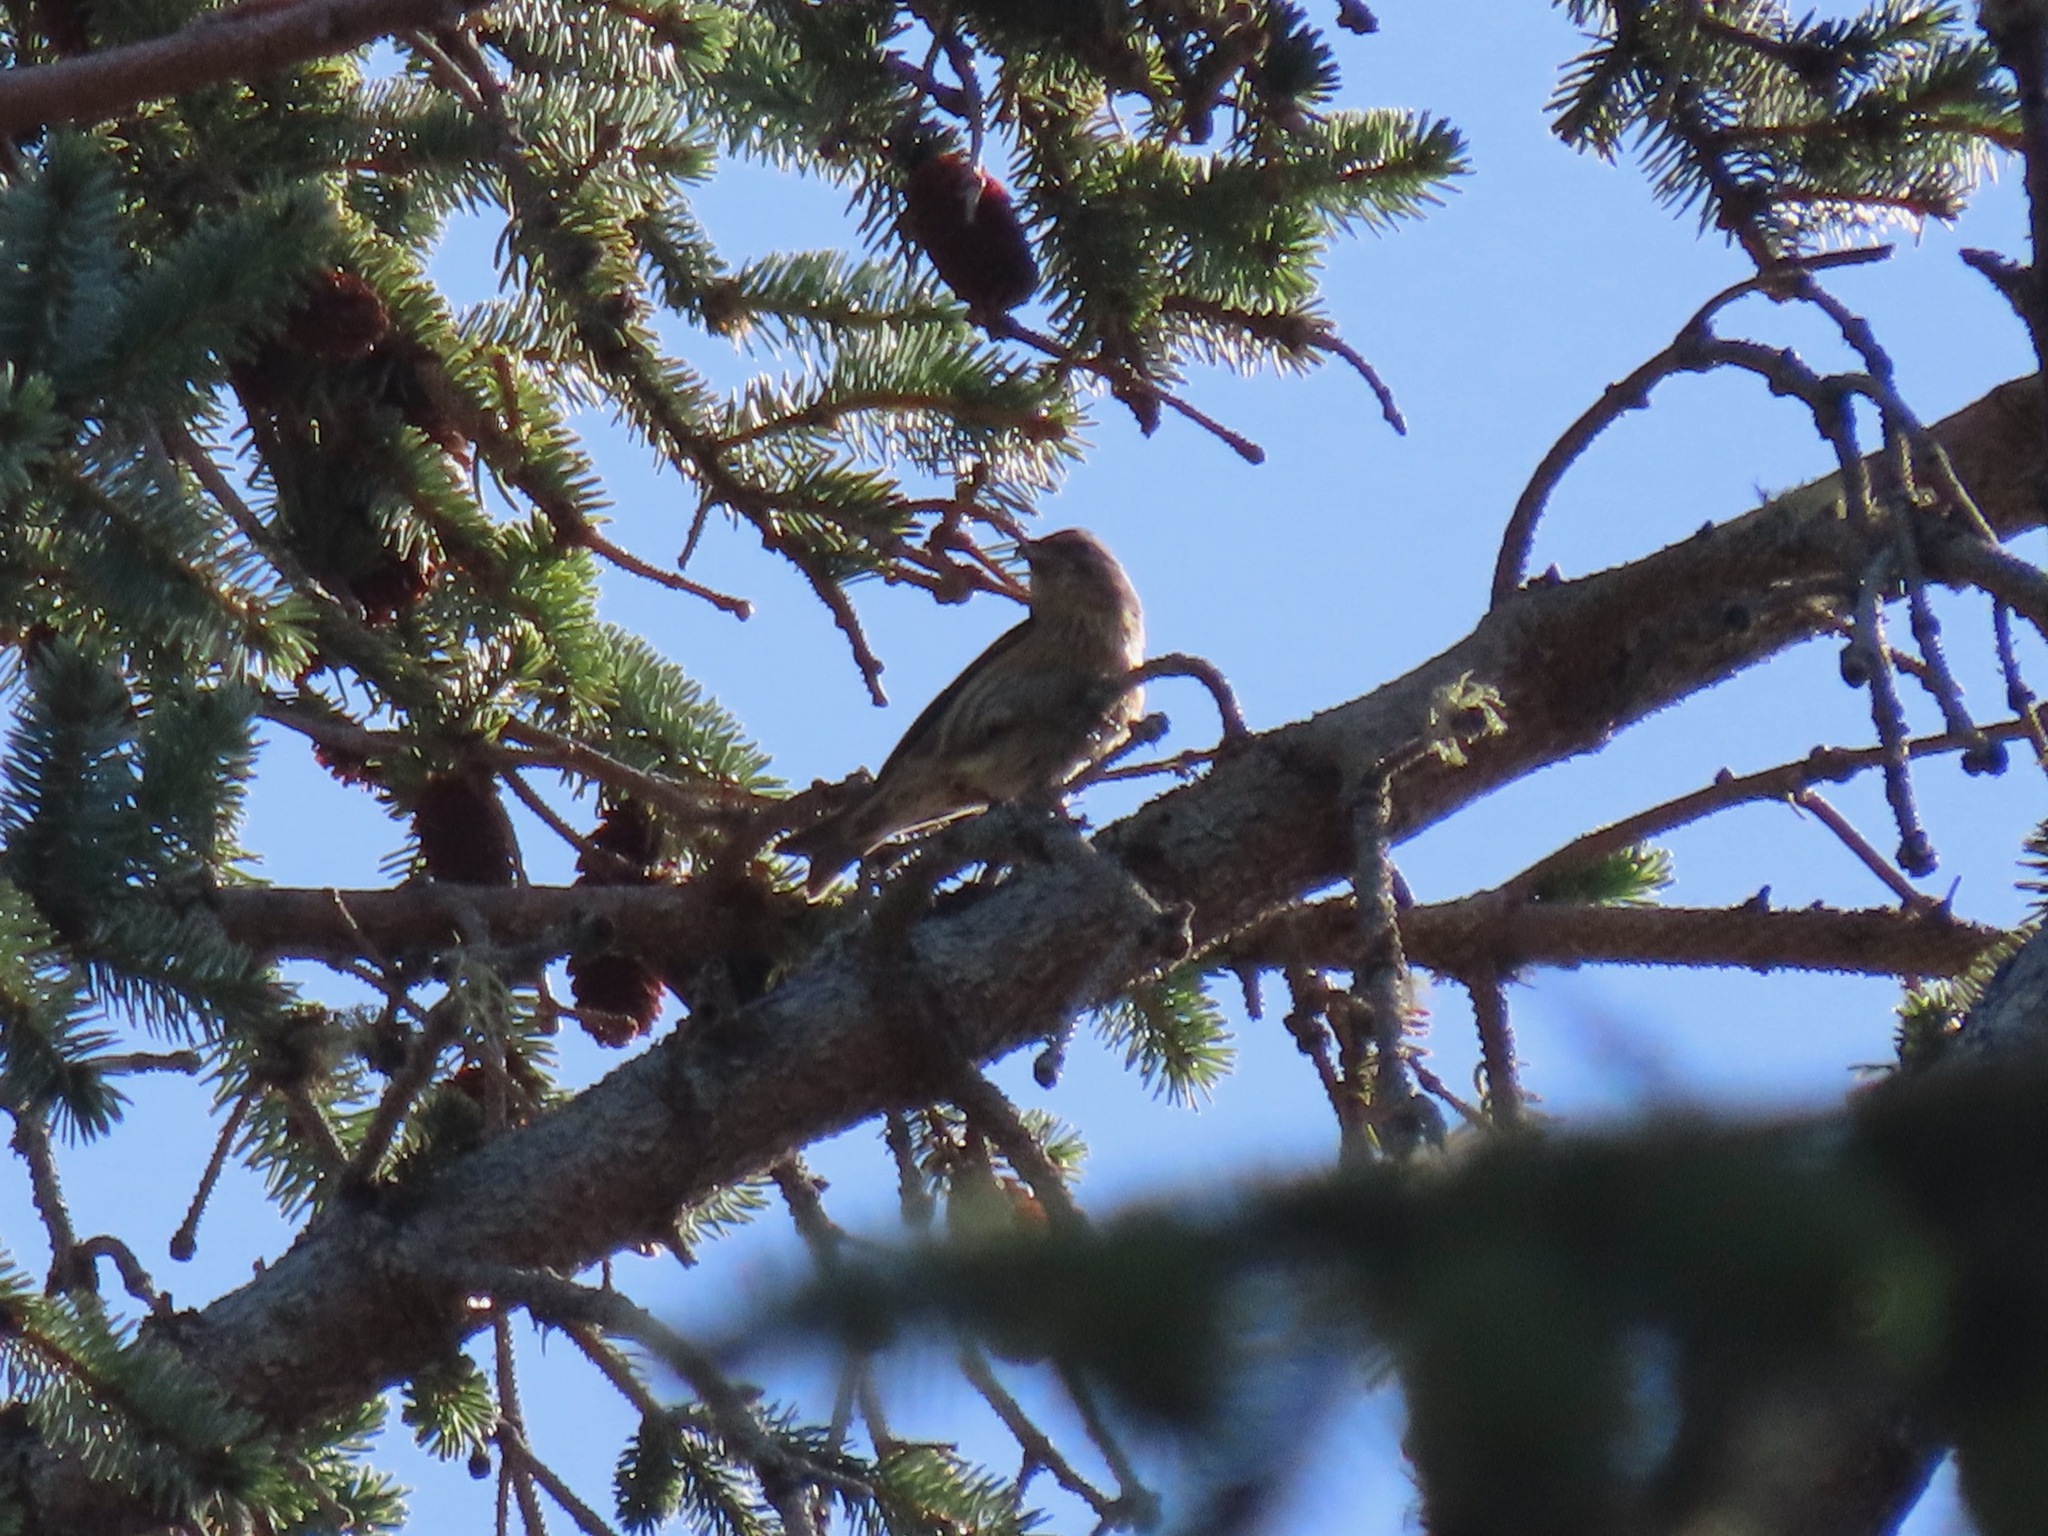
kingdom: Animalia
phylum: Chordata
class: Aves
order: Passeriformes
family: Fringillidae
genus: Loxia
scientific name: Loxia curvirostra
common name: Red crossbill
